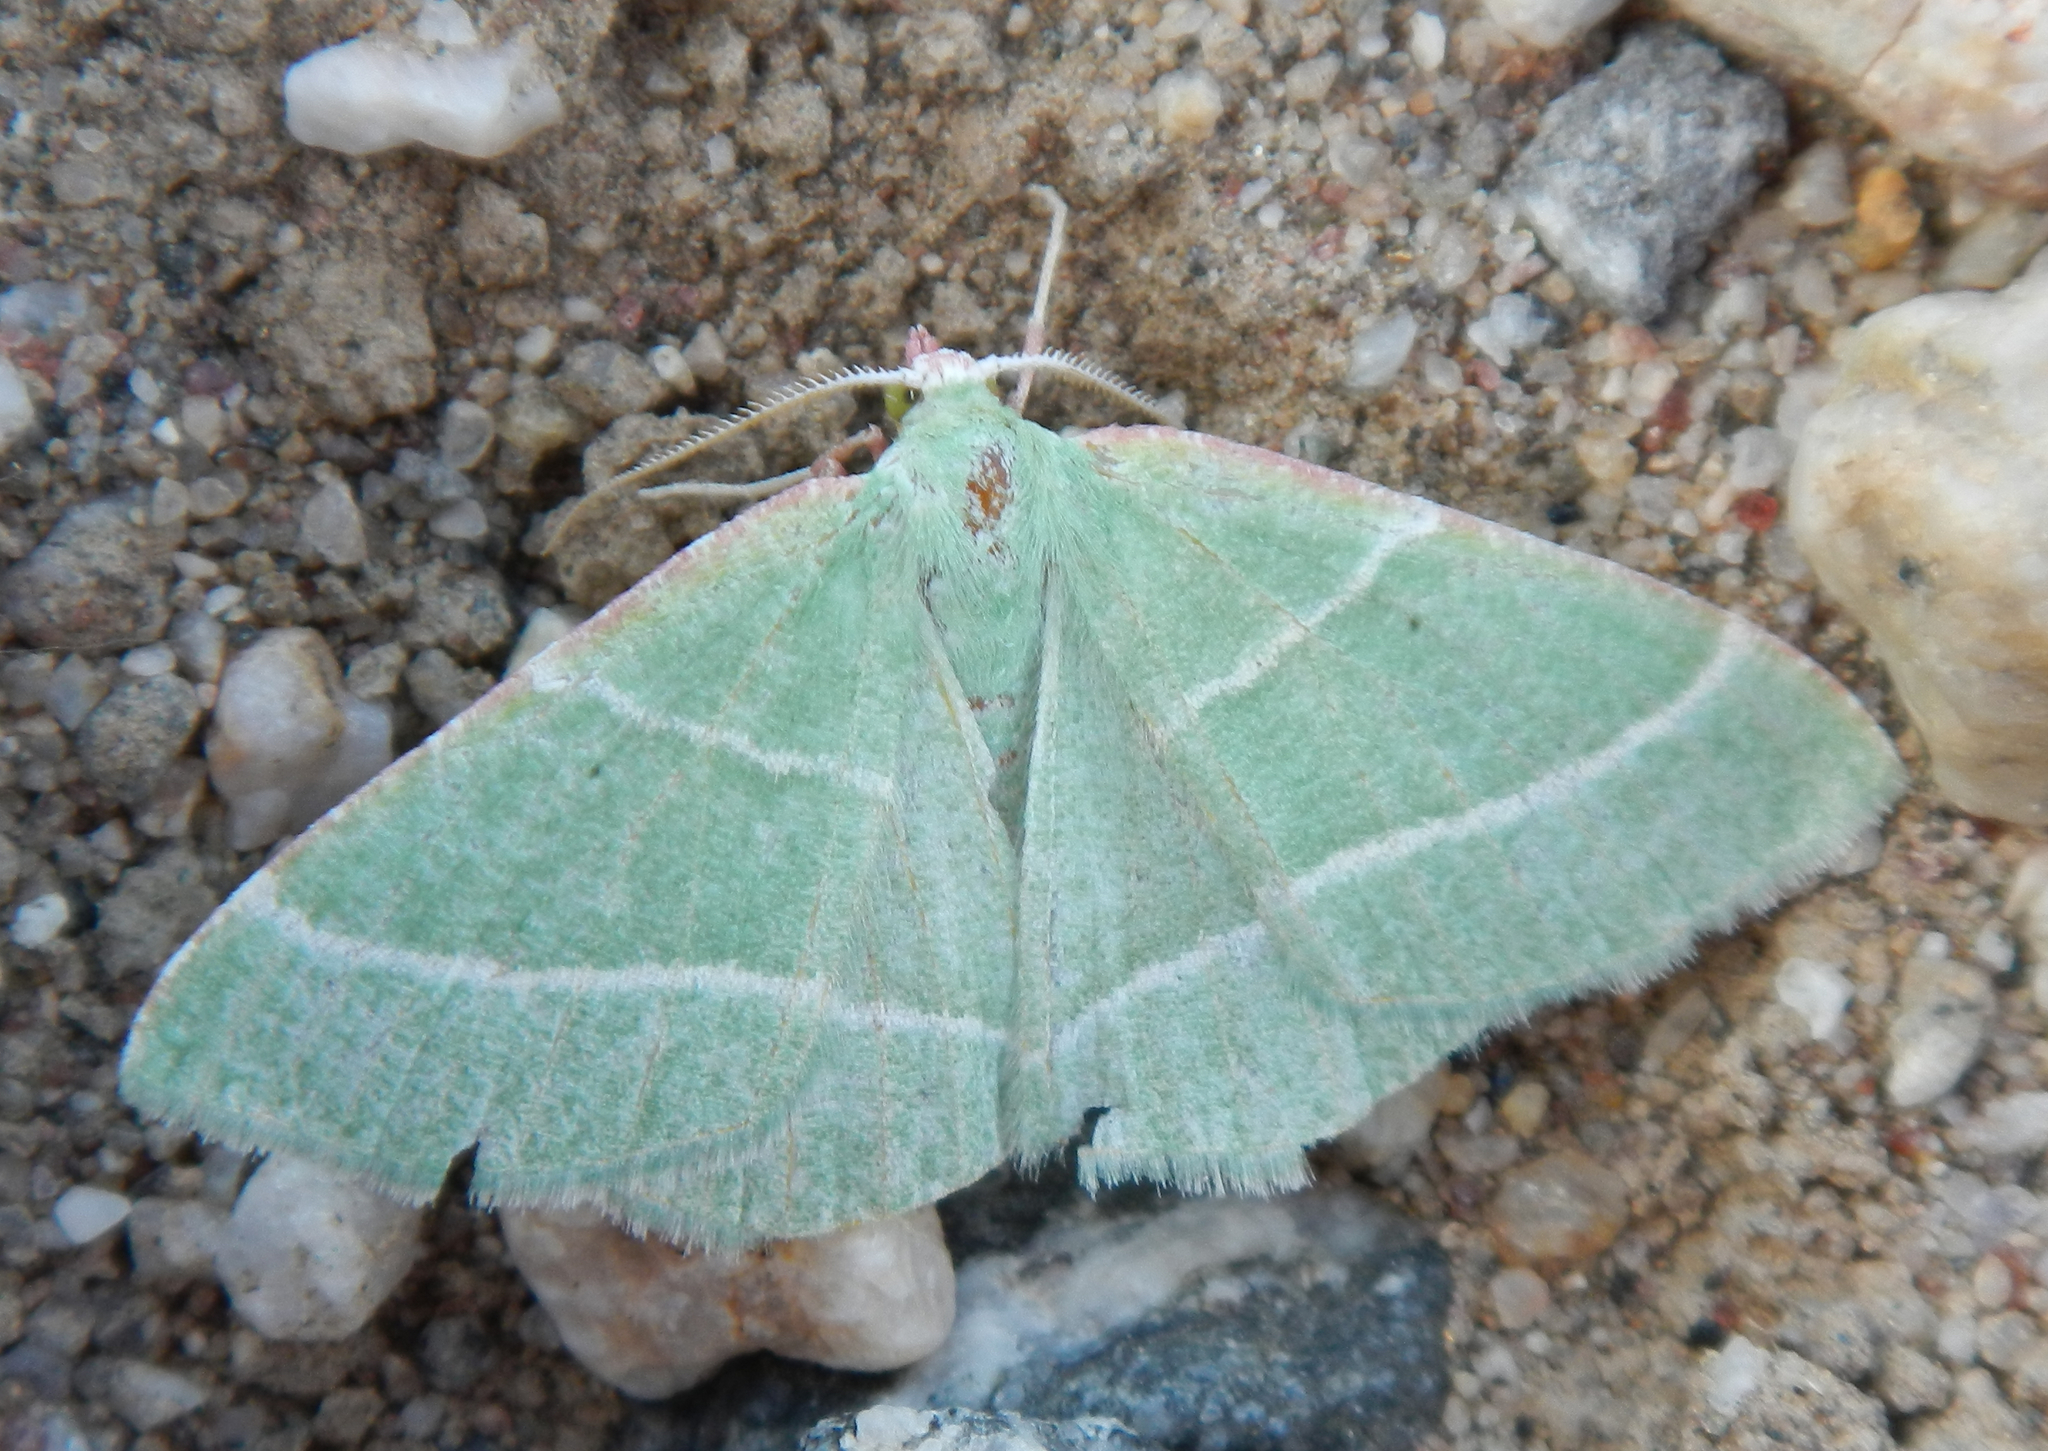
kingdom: Animalia
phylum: Arthropoda
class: Insecta
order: Lepidoptera
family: Geometridae
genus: Dichordophora
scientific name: Dichordophora phoenix
